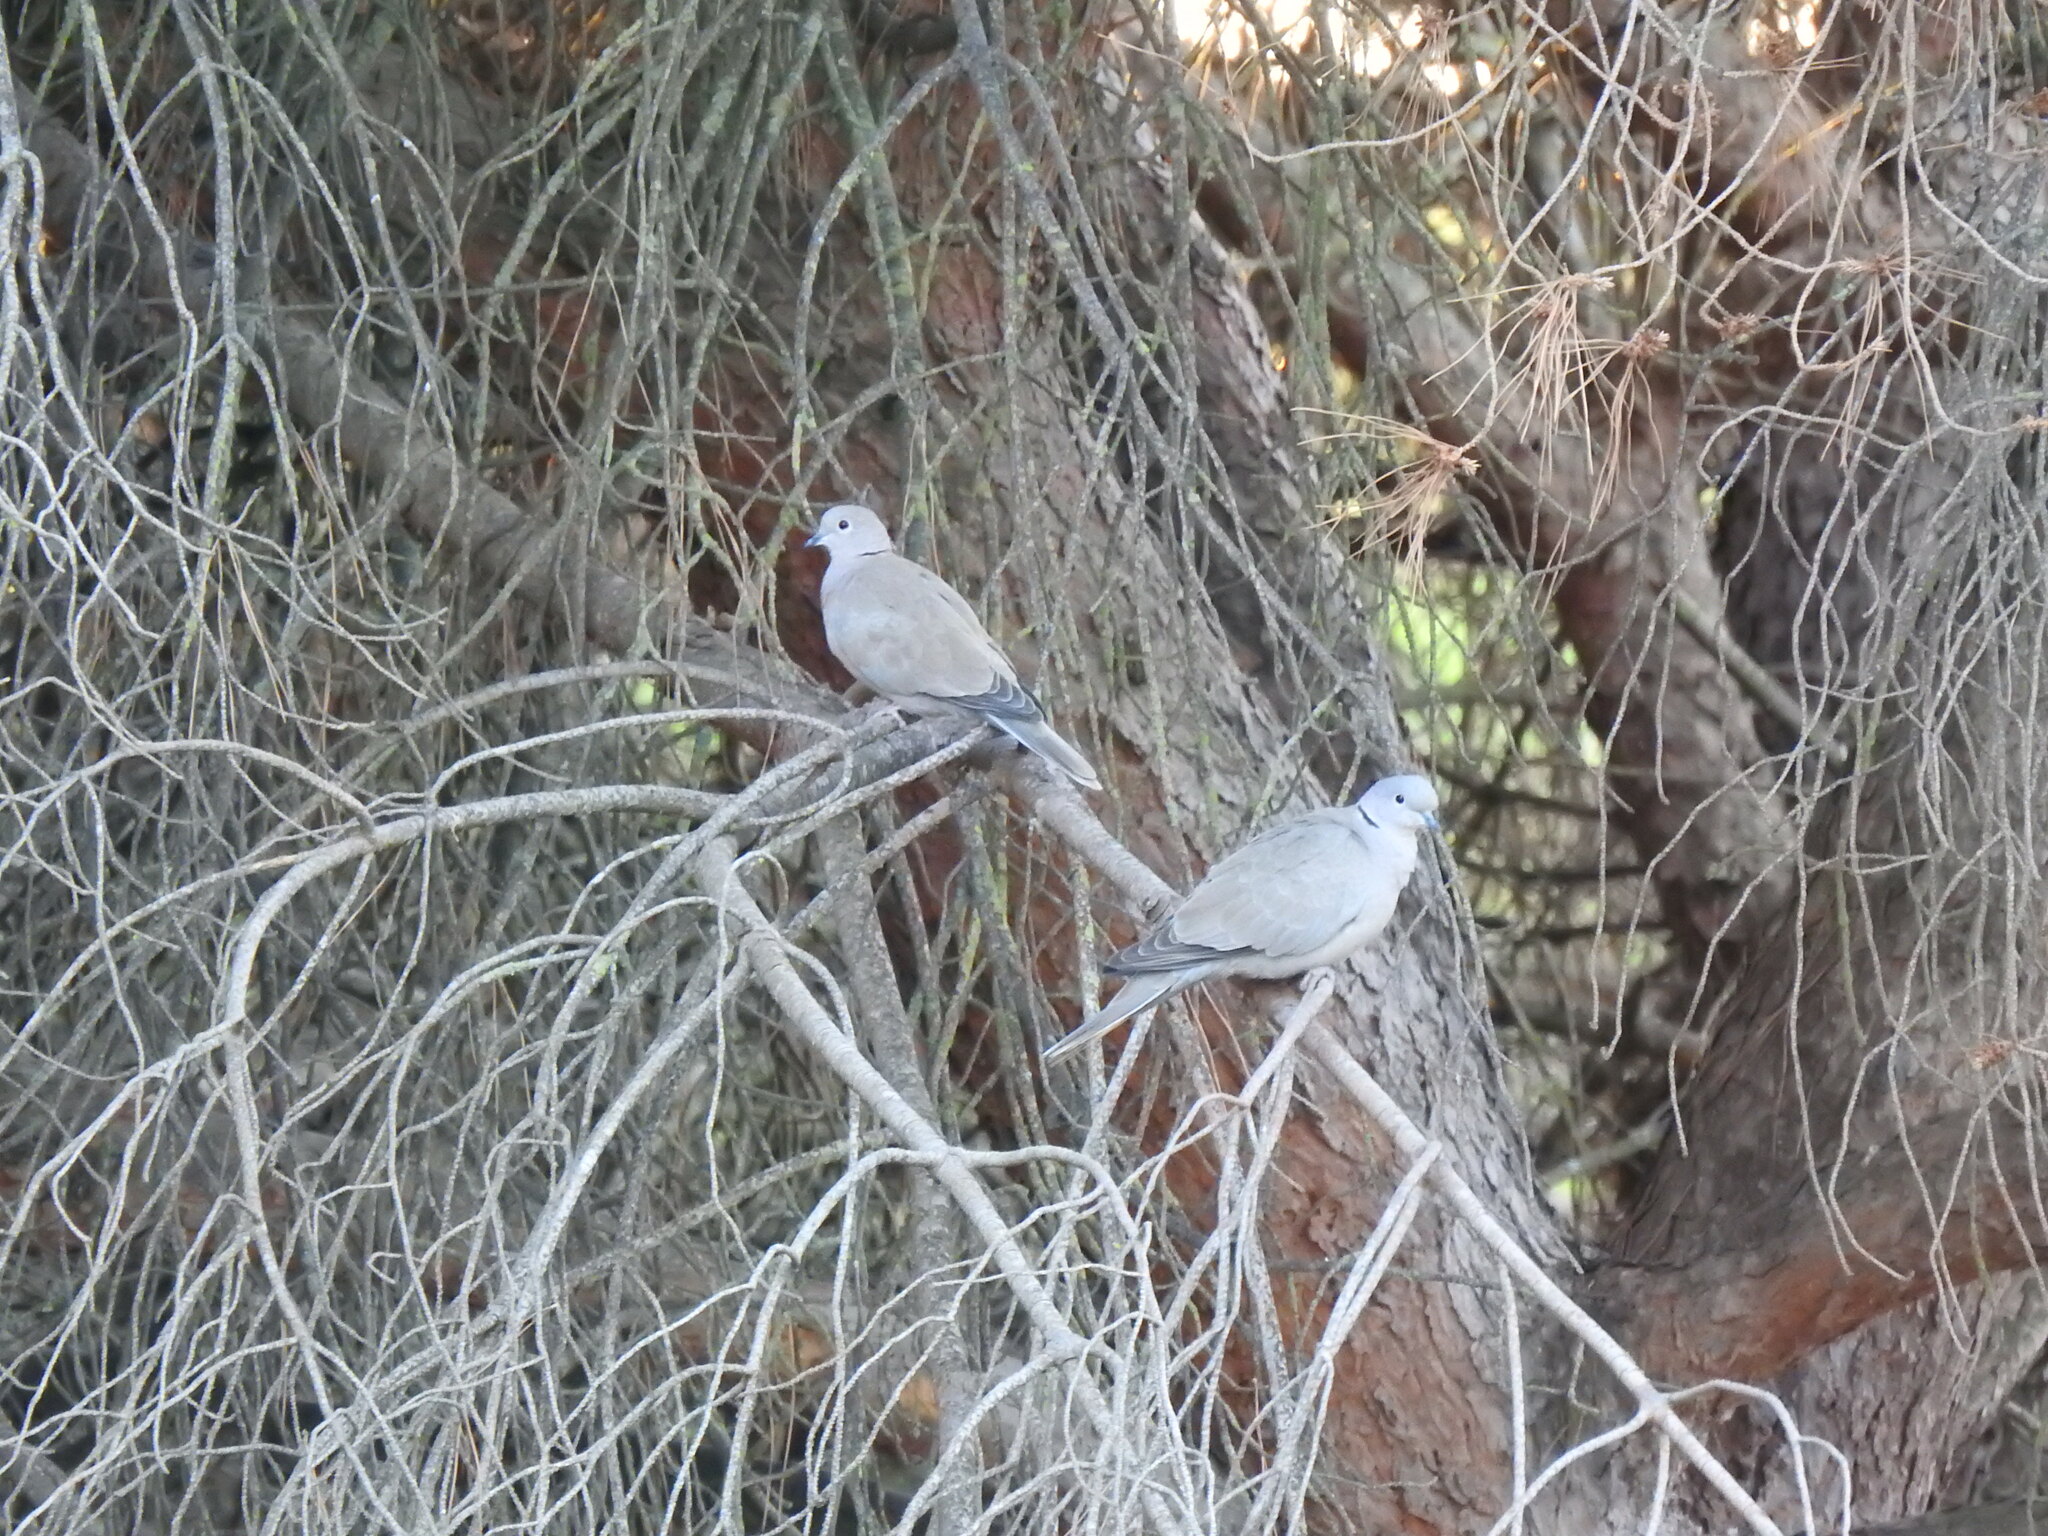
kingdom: Animalia
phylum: Chordata
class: Aves
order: Columbiformes
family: Columbidae
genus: Streptopelia
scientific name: Streptopelia decaocto
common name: Eurasian collared dove
